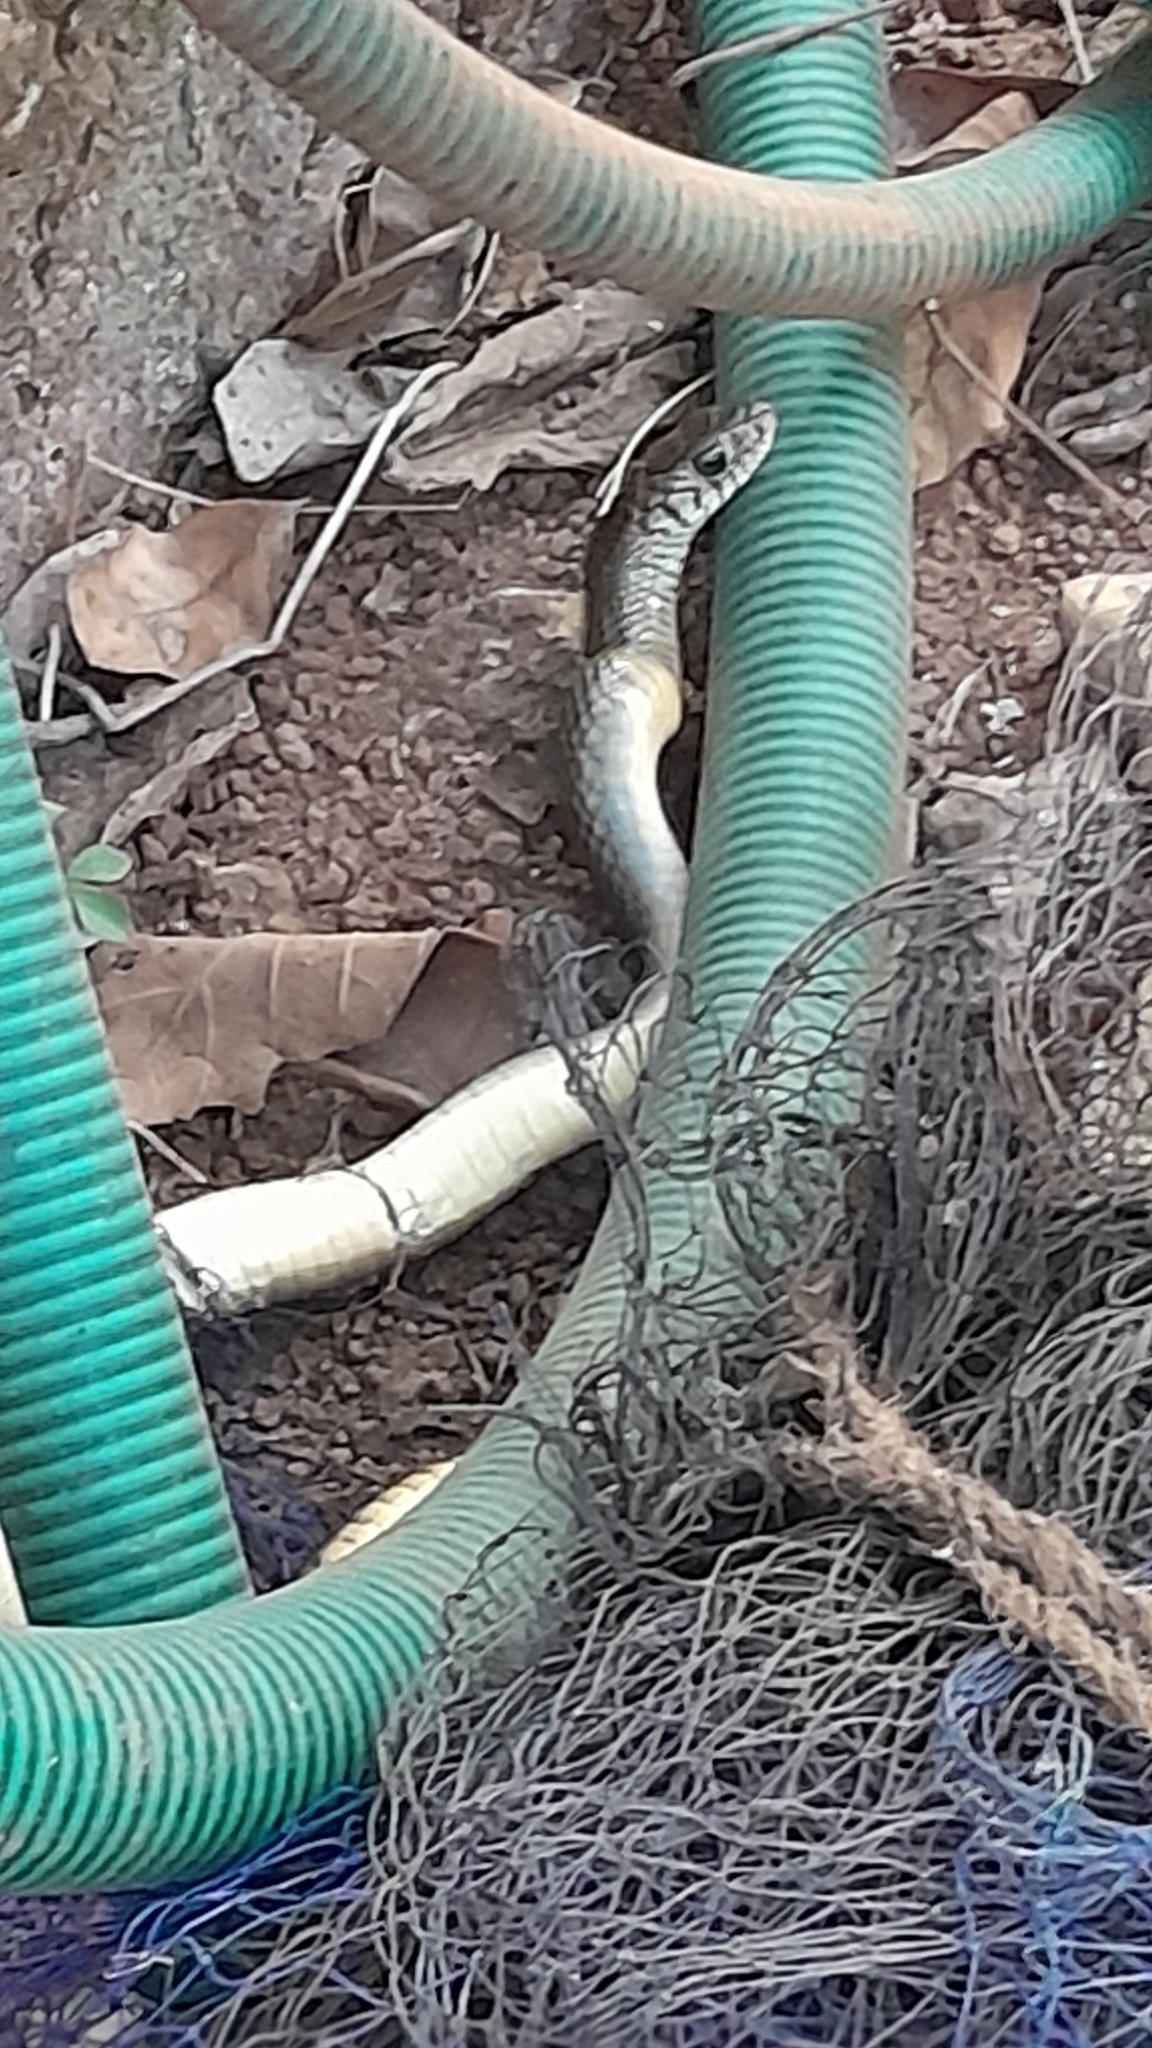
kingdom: Animalia
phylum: Chordata
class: Squamata
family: Colubridae
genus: Ptyas
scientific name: Ptyas mucosa
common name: Oriental ratsnake
